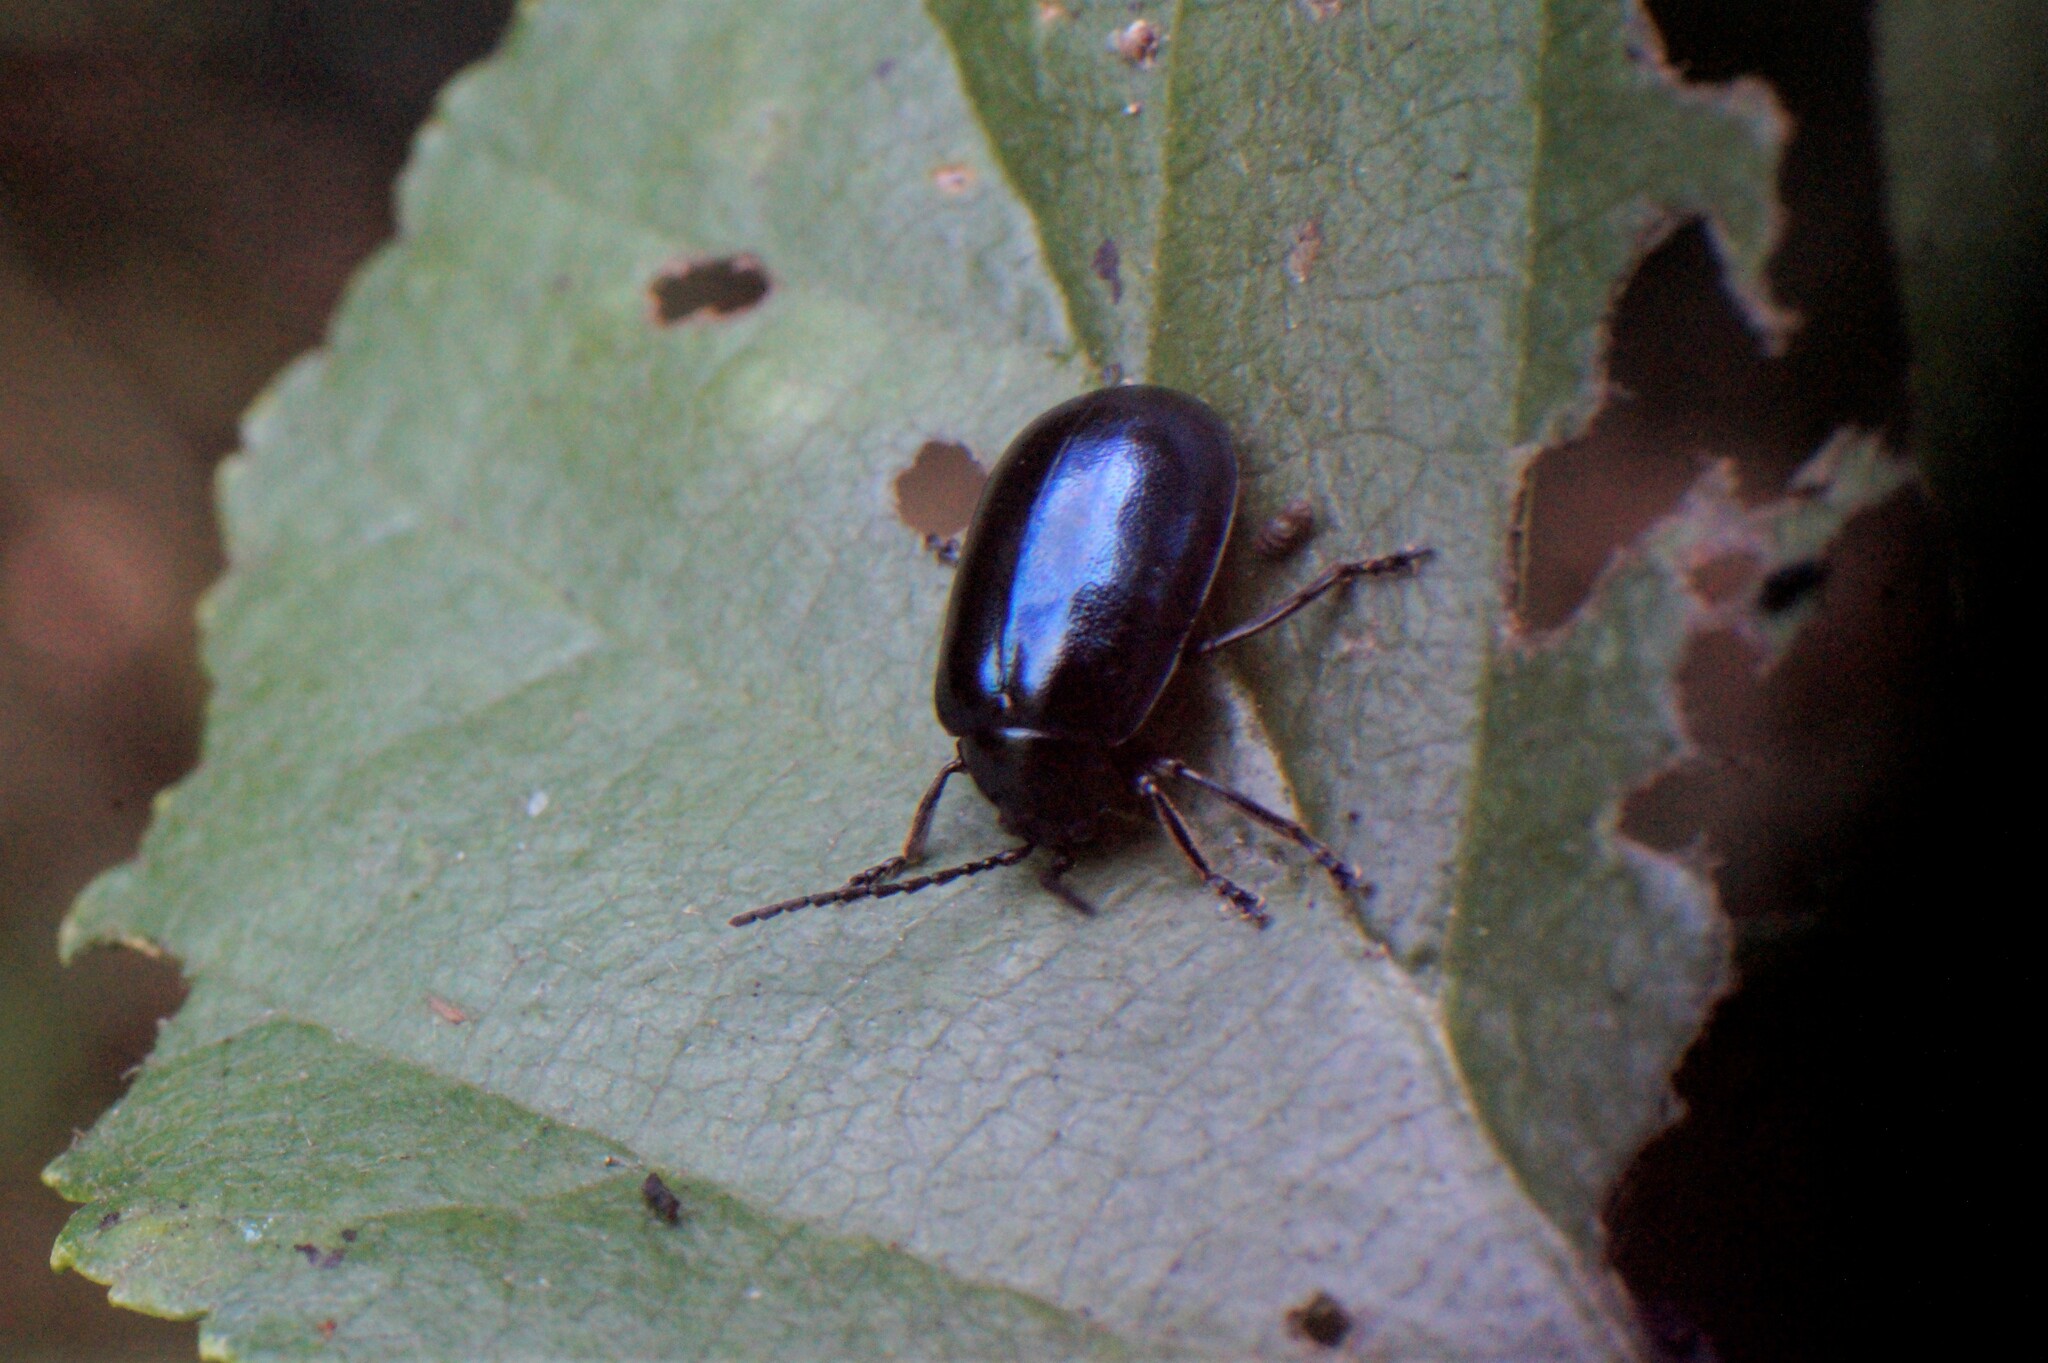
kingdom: Animalia
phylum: Arthropoda
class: Insecta
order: Coleoptera
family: Chrysomelidae
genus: Agelastica
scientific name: Agelastica alni
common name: Alder leaf beetle
